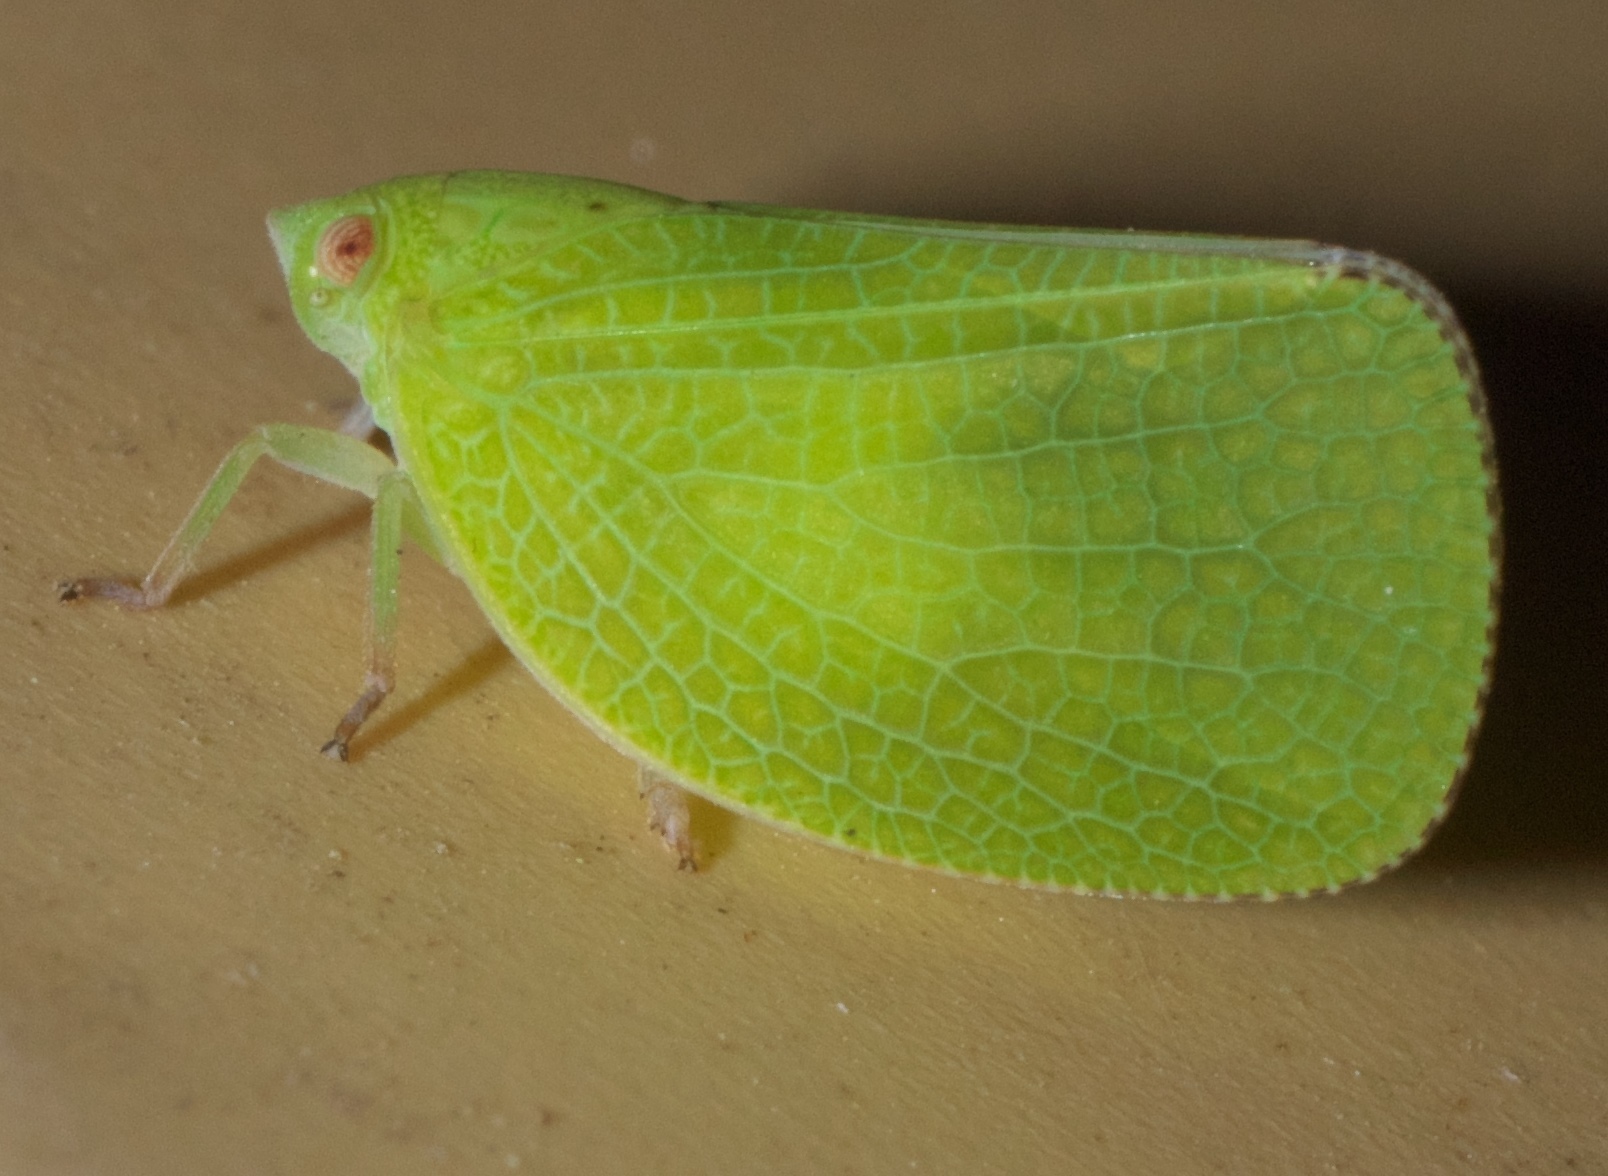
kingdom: Animalia
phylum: Arthropoda
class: Insecta
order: Hemiptera
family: Acanaloniidae
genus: Acanalonia
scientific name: Acanalonia conica
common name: Green cone-headed planthopper
